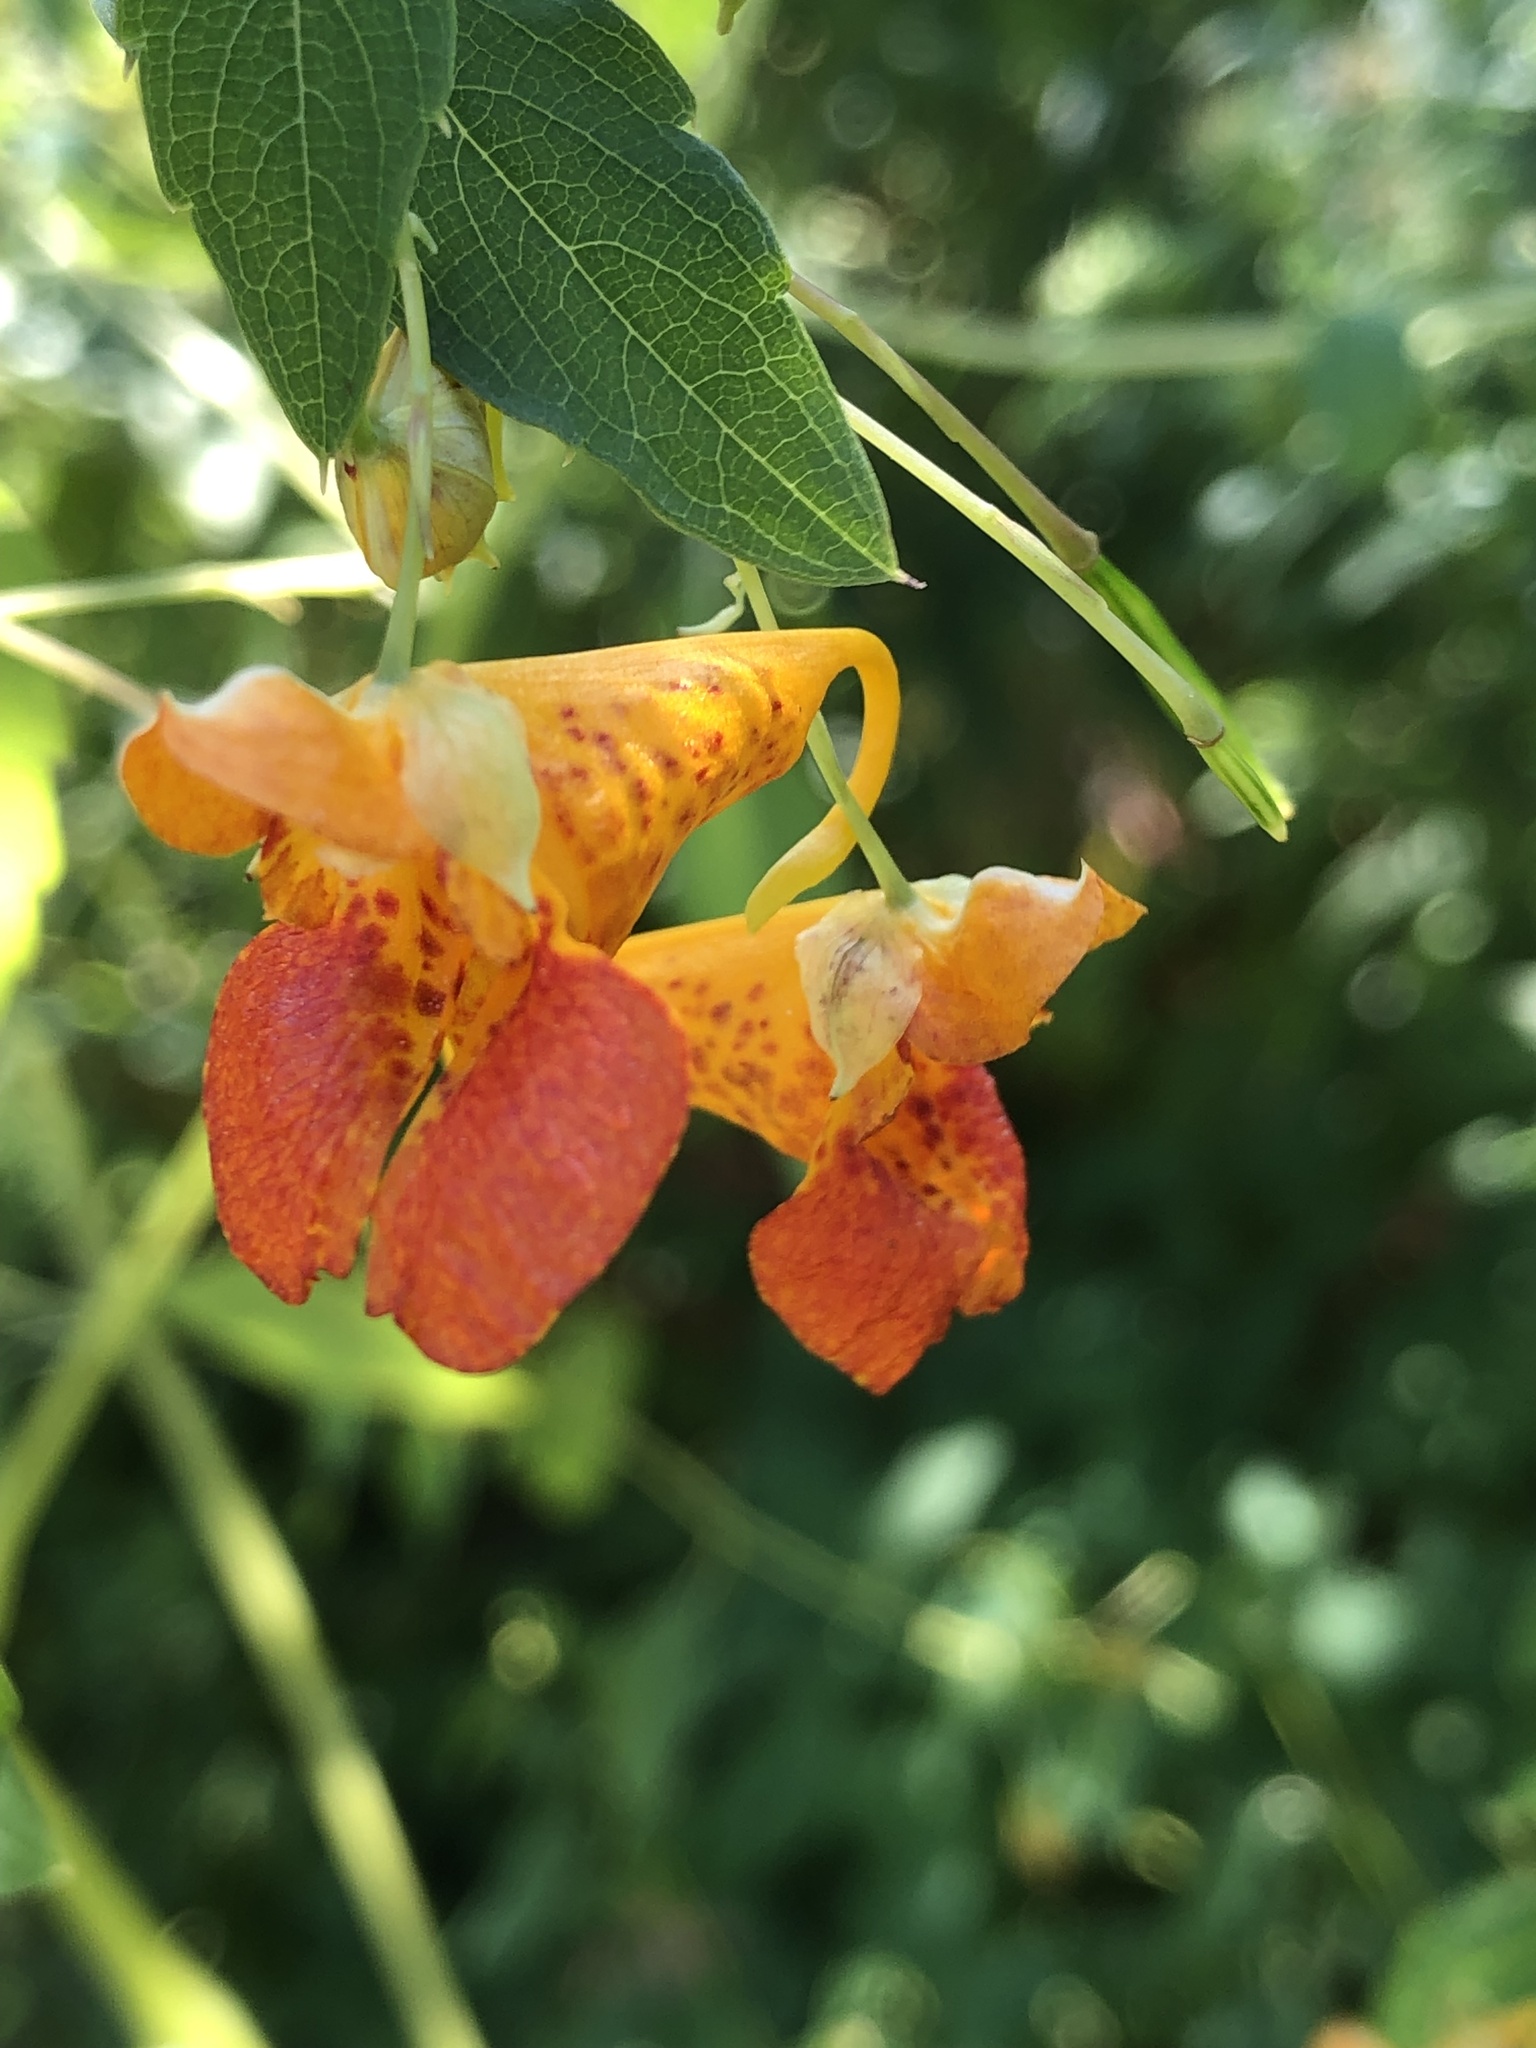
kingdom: Plantae
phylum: Tracheophyta
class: Magnoliopsida
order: Ericales
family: Balsaminaceae
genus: Impatiens
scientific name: Impatiens capensis
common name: Orange balsam
